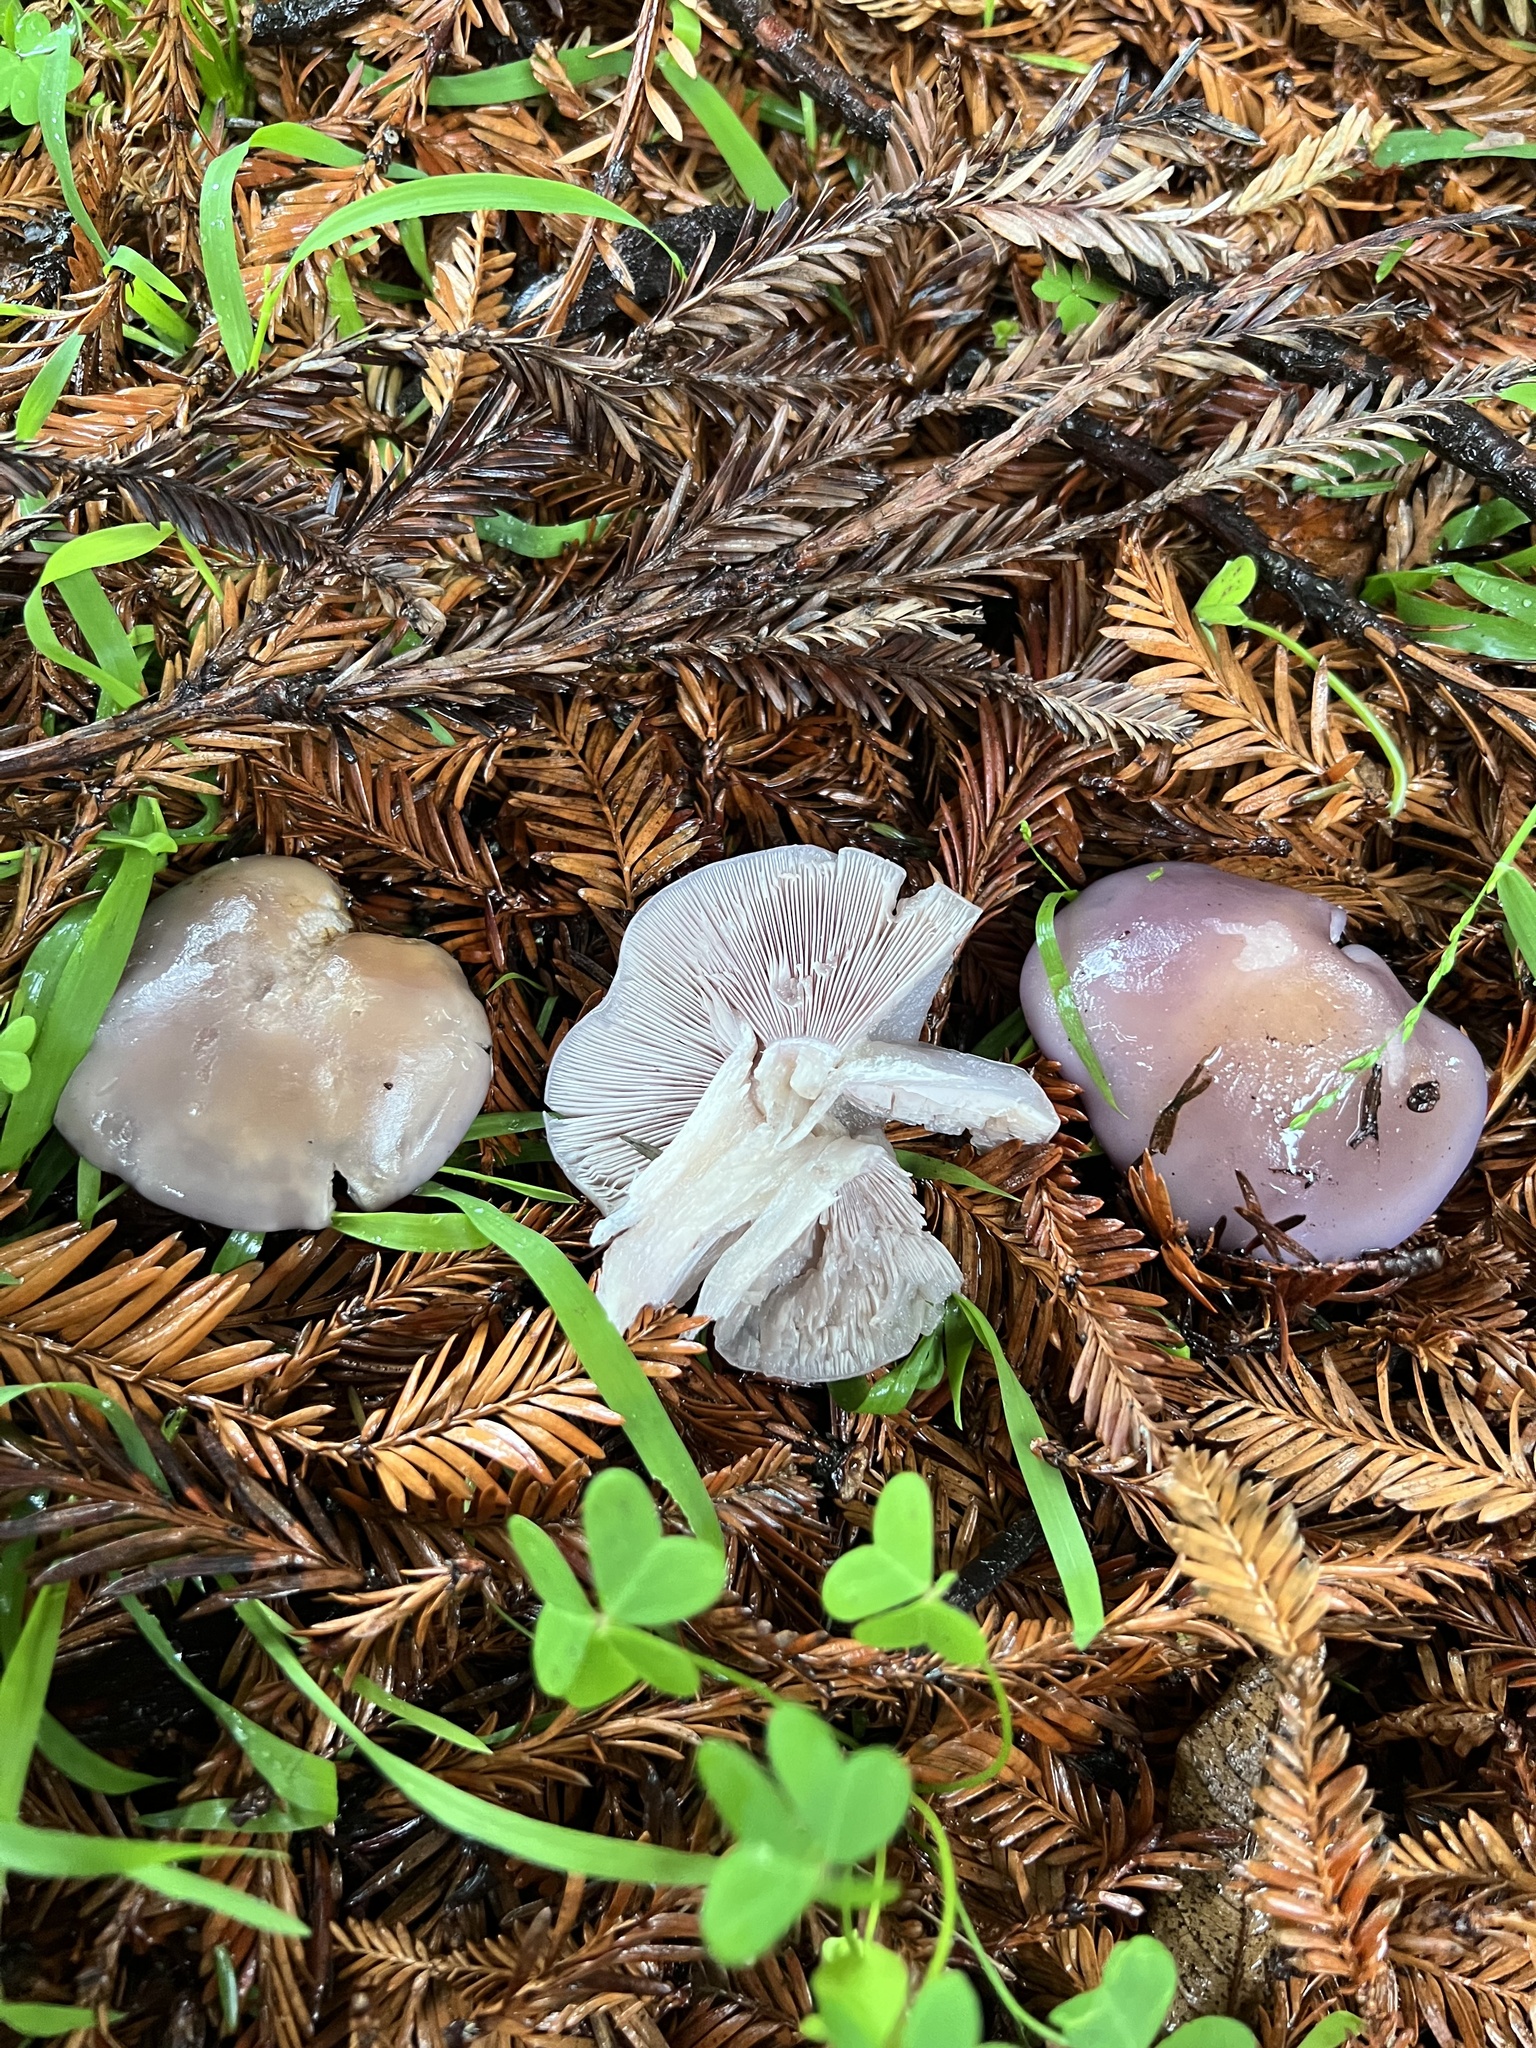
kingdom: Fungi
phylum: Basidiomycota
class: Agaricomycetes
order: Agaricales
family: Tricholomataceae
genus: Clitocybe
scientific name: Clitocybe violaceifolia
